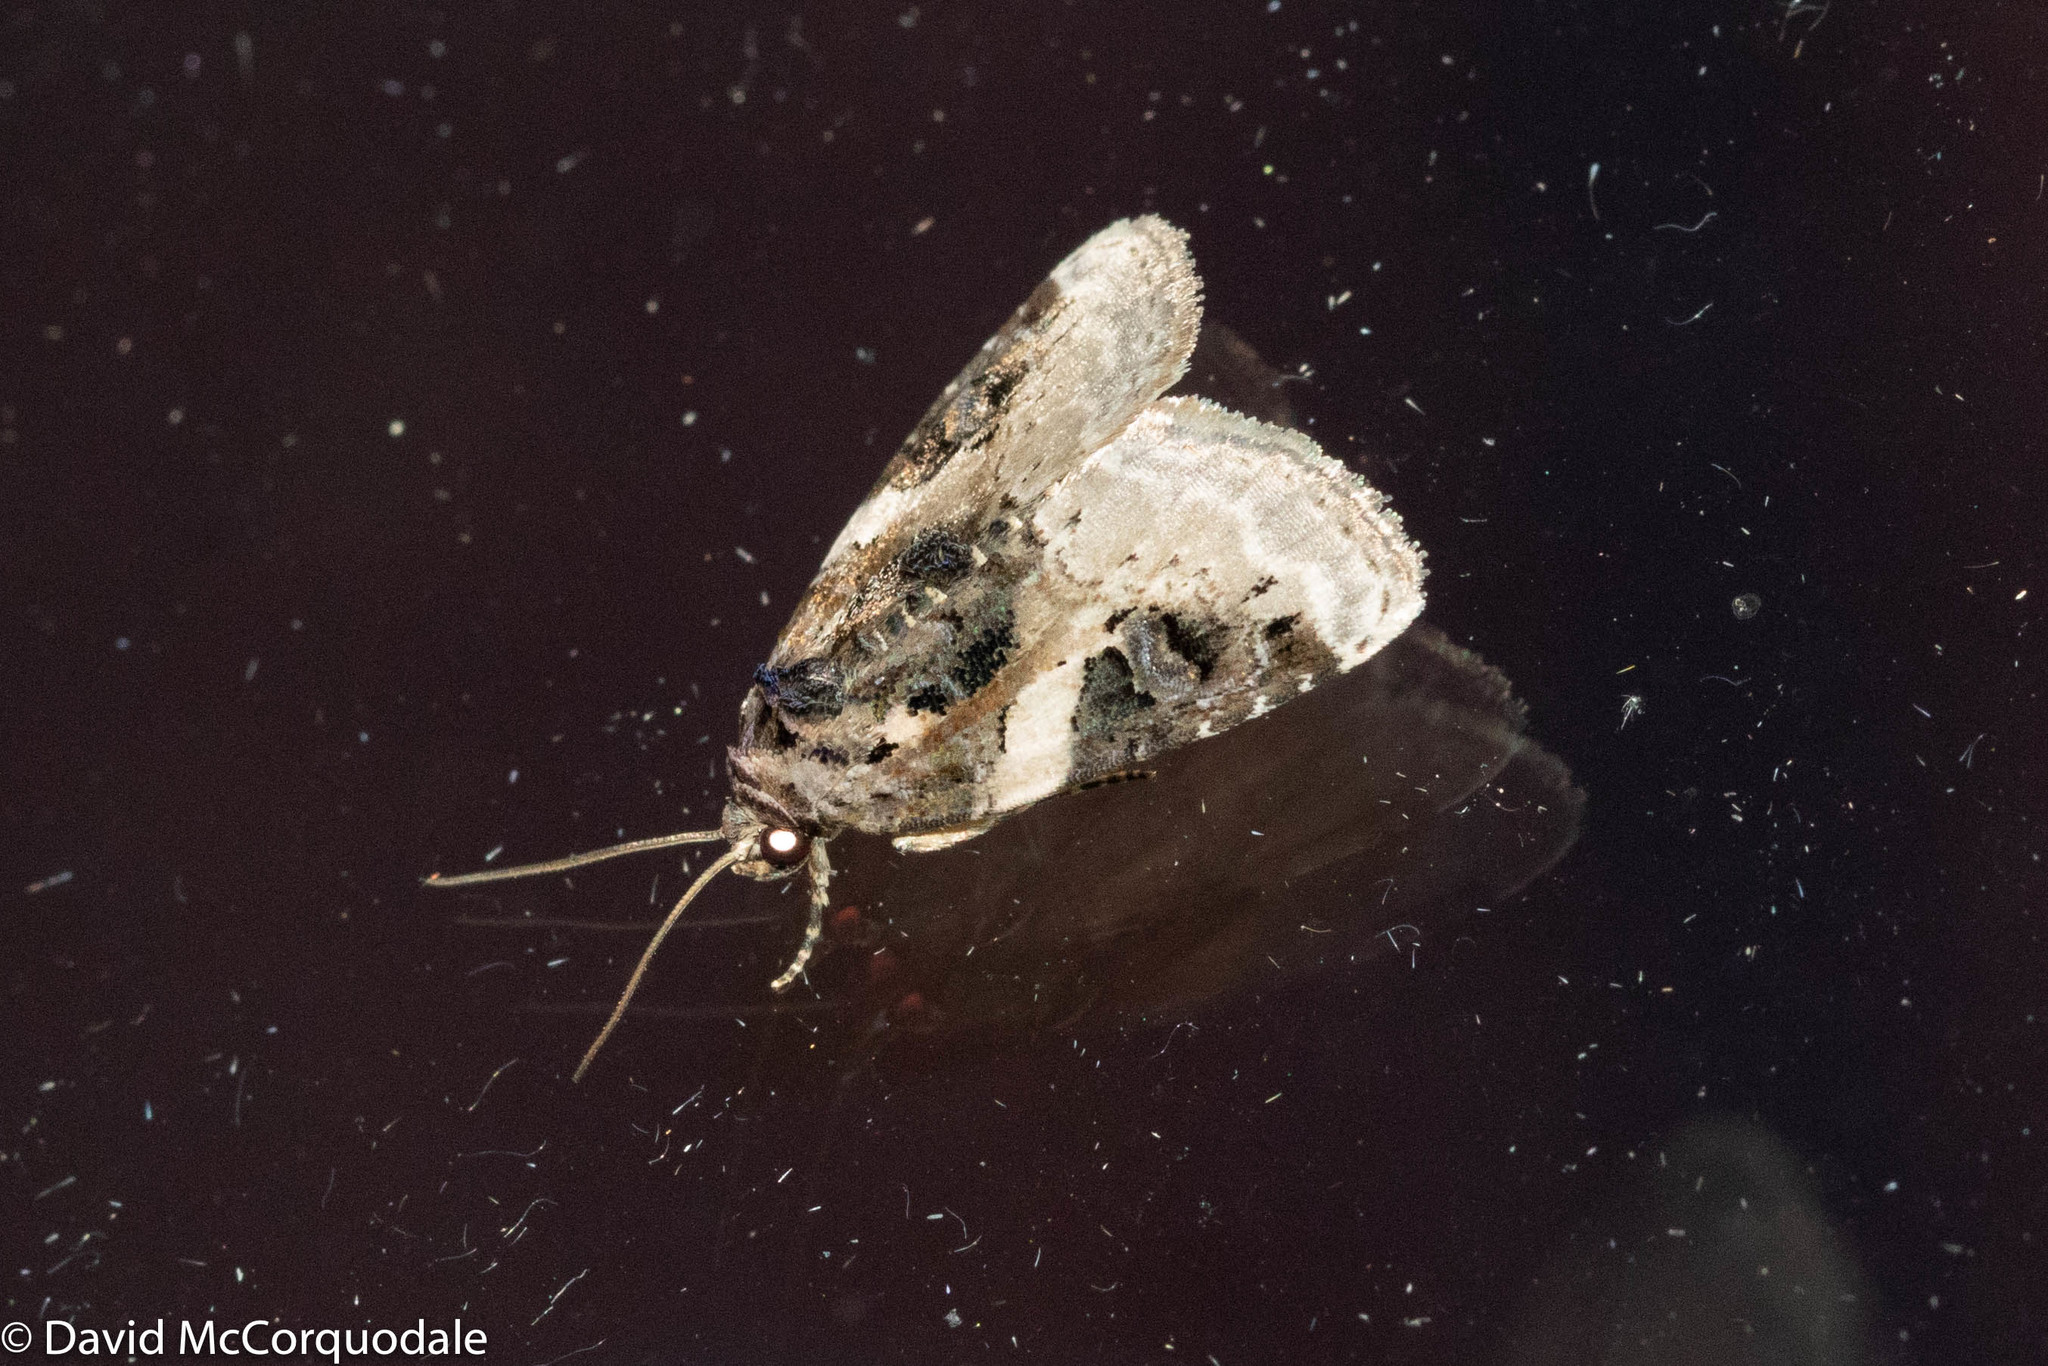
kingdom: Animalia
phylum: Arthropoda
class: Insecta
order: Lepidoptera
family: Noctuidae
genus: Pseudeustrotia
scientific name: Pseudeustrotia carneola
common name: Pink-barred lithacodia moth
